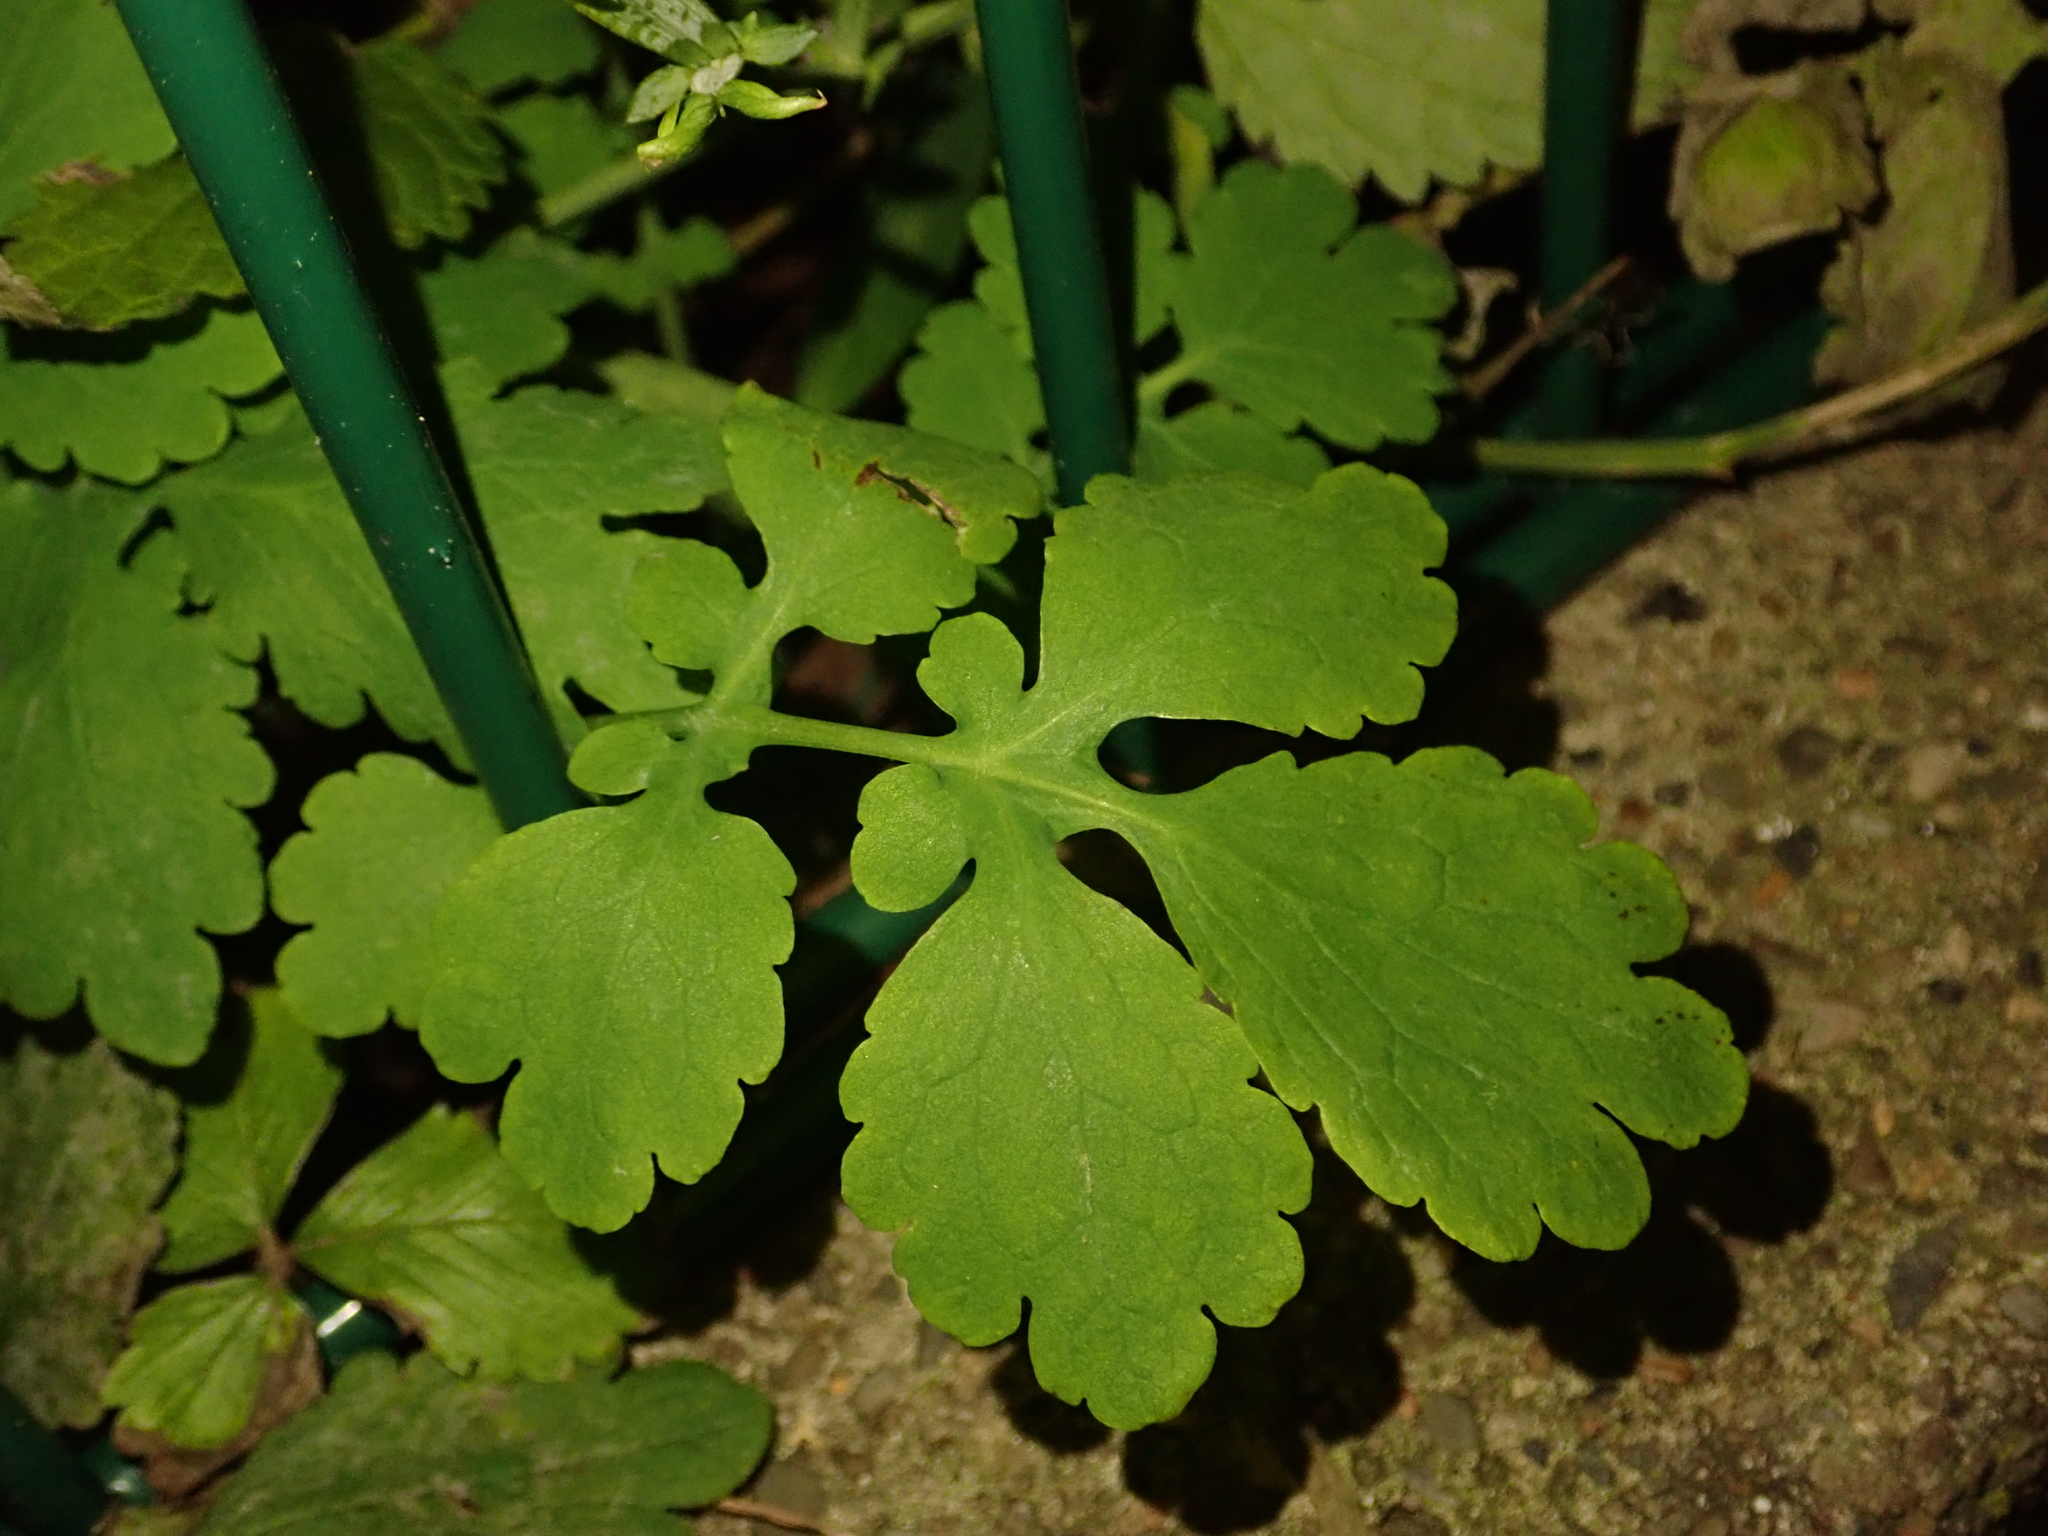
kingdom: Plantae
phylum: Tracheophyta
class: Magnoliopsida
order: Ranunculales
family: Papaveraceae
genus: Chelidonium
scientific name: Chelidonium majus
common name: Greater celandine
